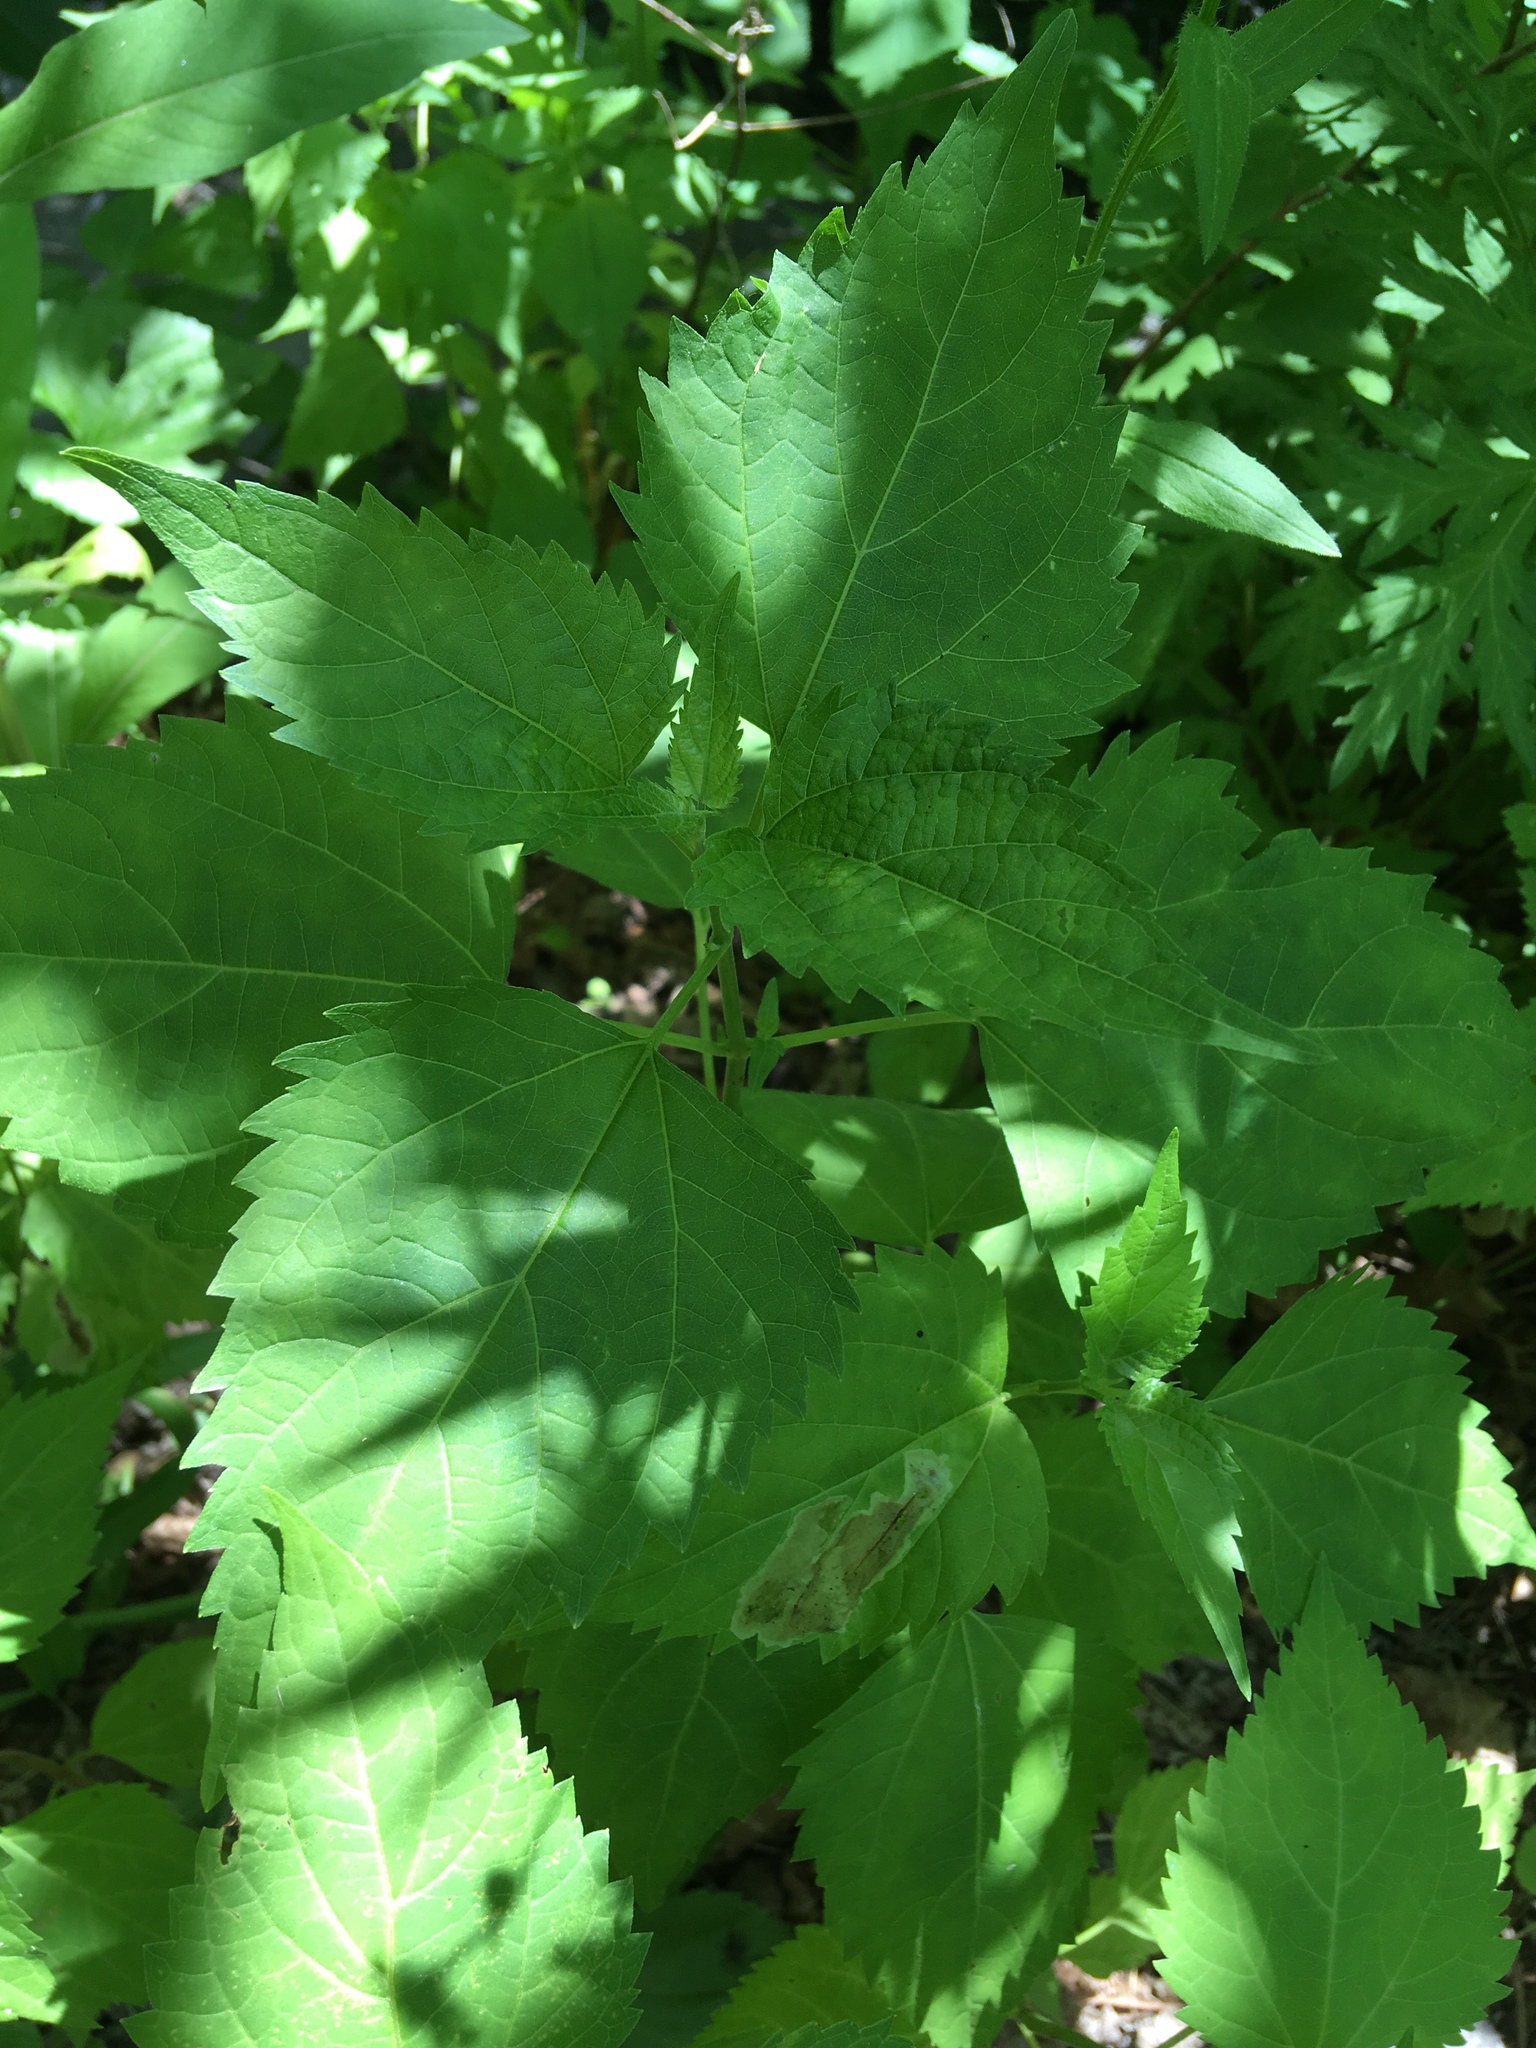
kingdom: Plantae
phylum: Tracheophyta
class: Magnoliopsida
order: Asterales
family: Asteraceae
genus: Ageratina
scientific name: Ageratina altissima
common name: White snakeroot
